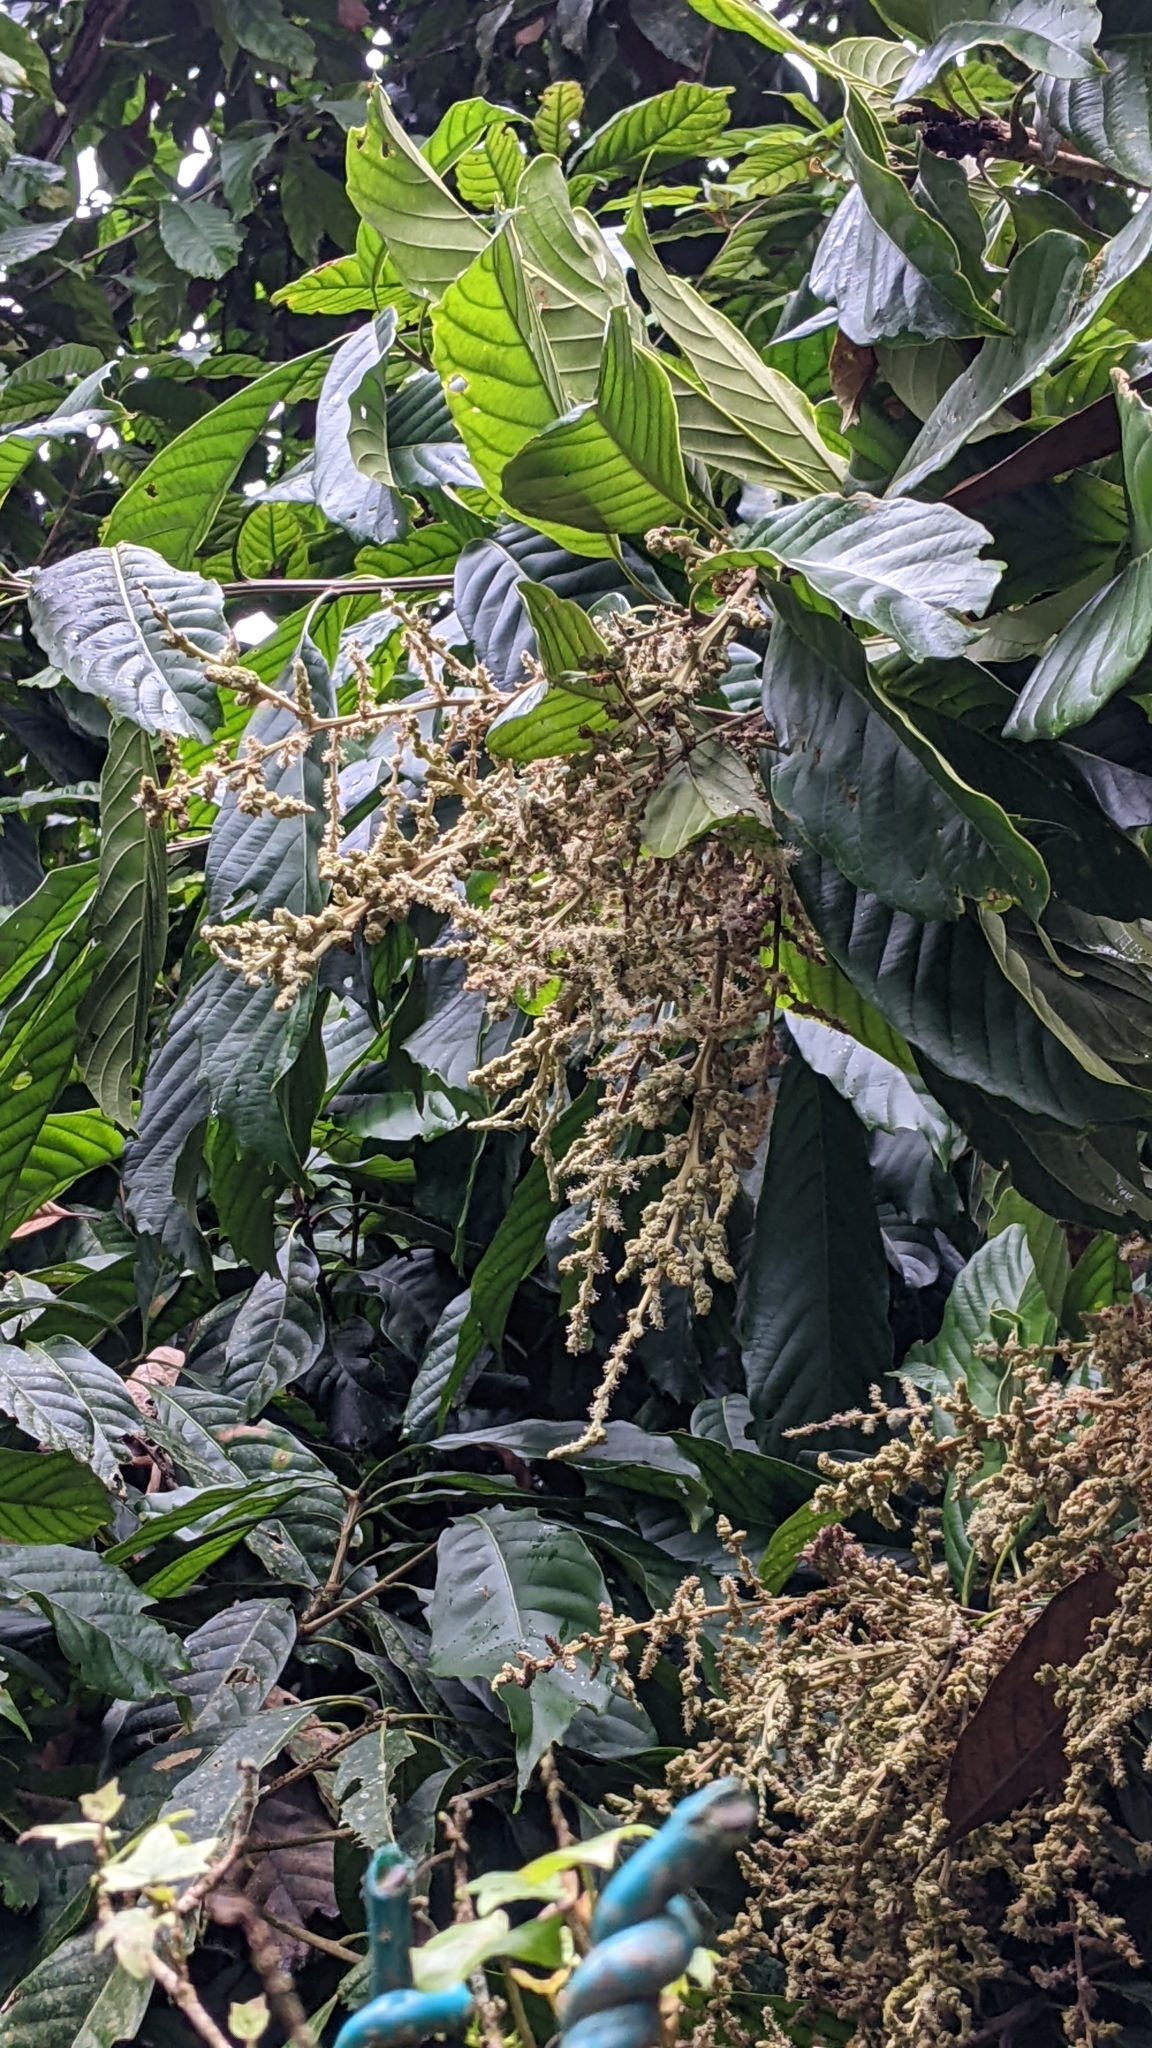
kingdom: Plantae
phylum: Tracheophyta
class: Magnoliopsida
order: Fagales
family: Fagaceae
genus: Lithocarpus
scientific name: Lithocarpus kawakamii
